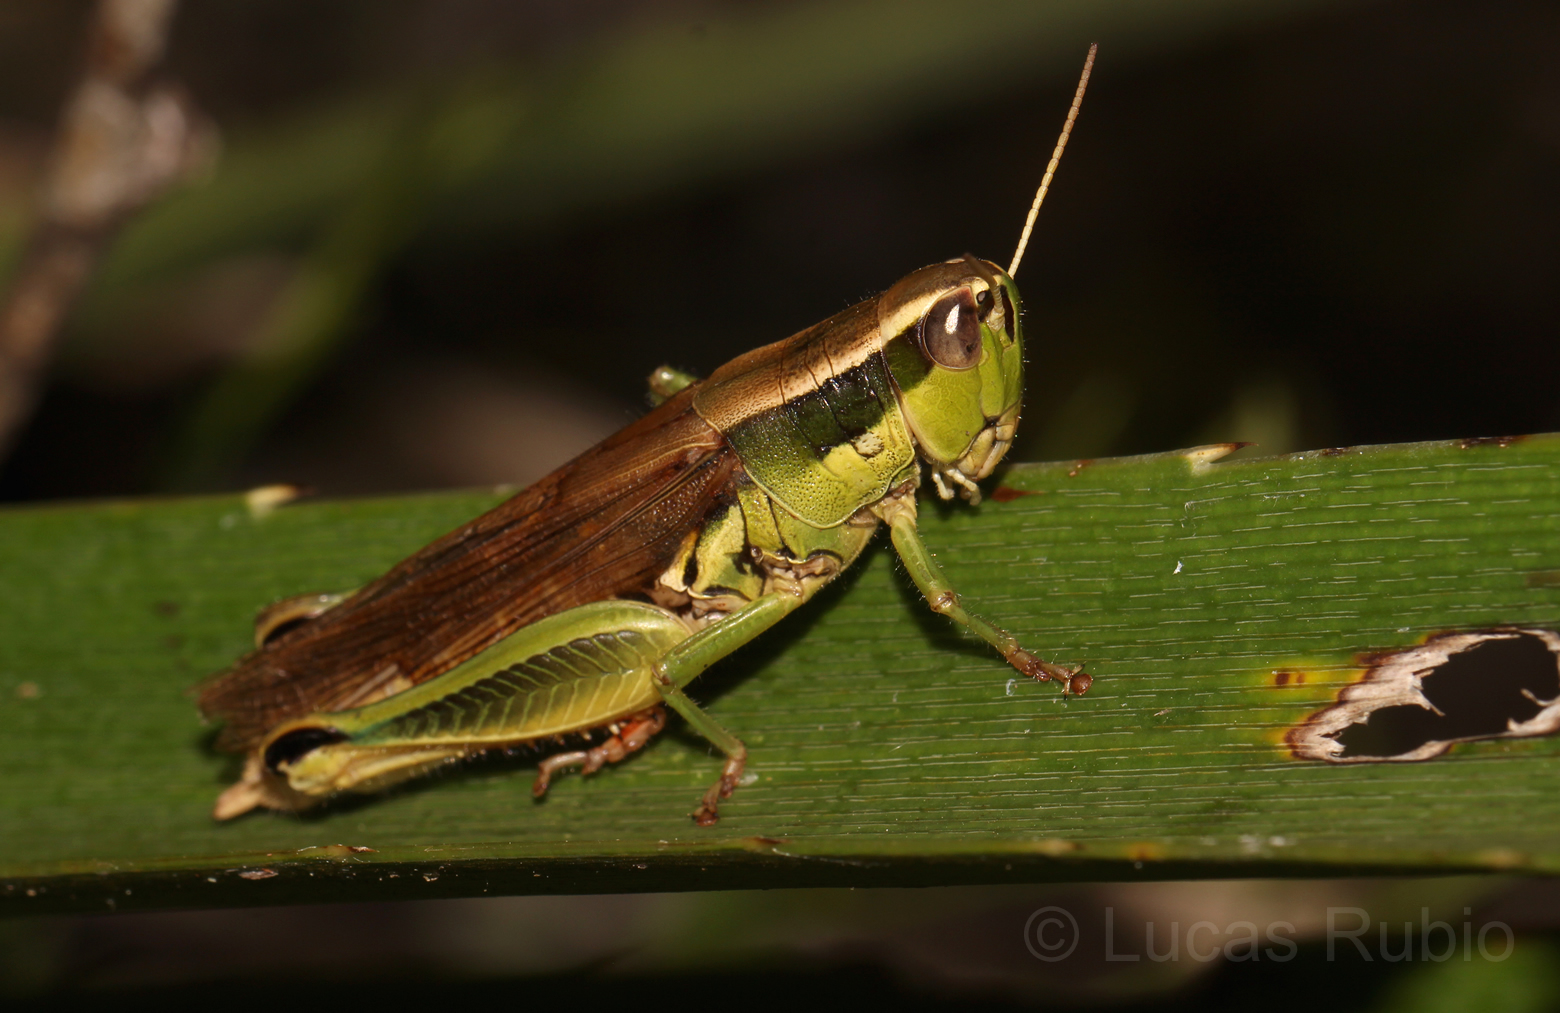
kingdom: Animalia
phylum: Arthropoda
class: Insecta
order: Orthoptera
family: Acrididae
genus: Scotussa
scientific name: Scotussa cliens
